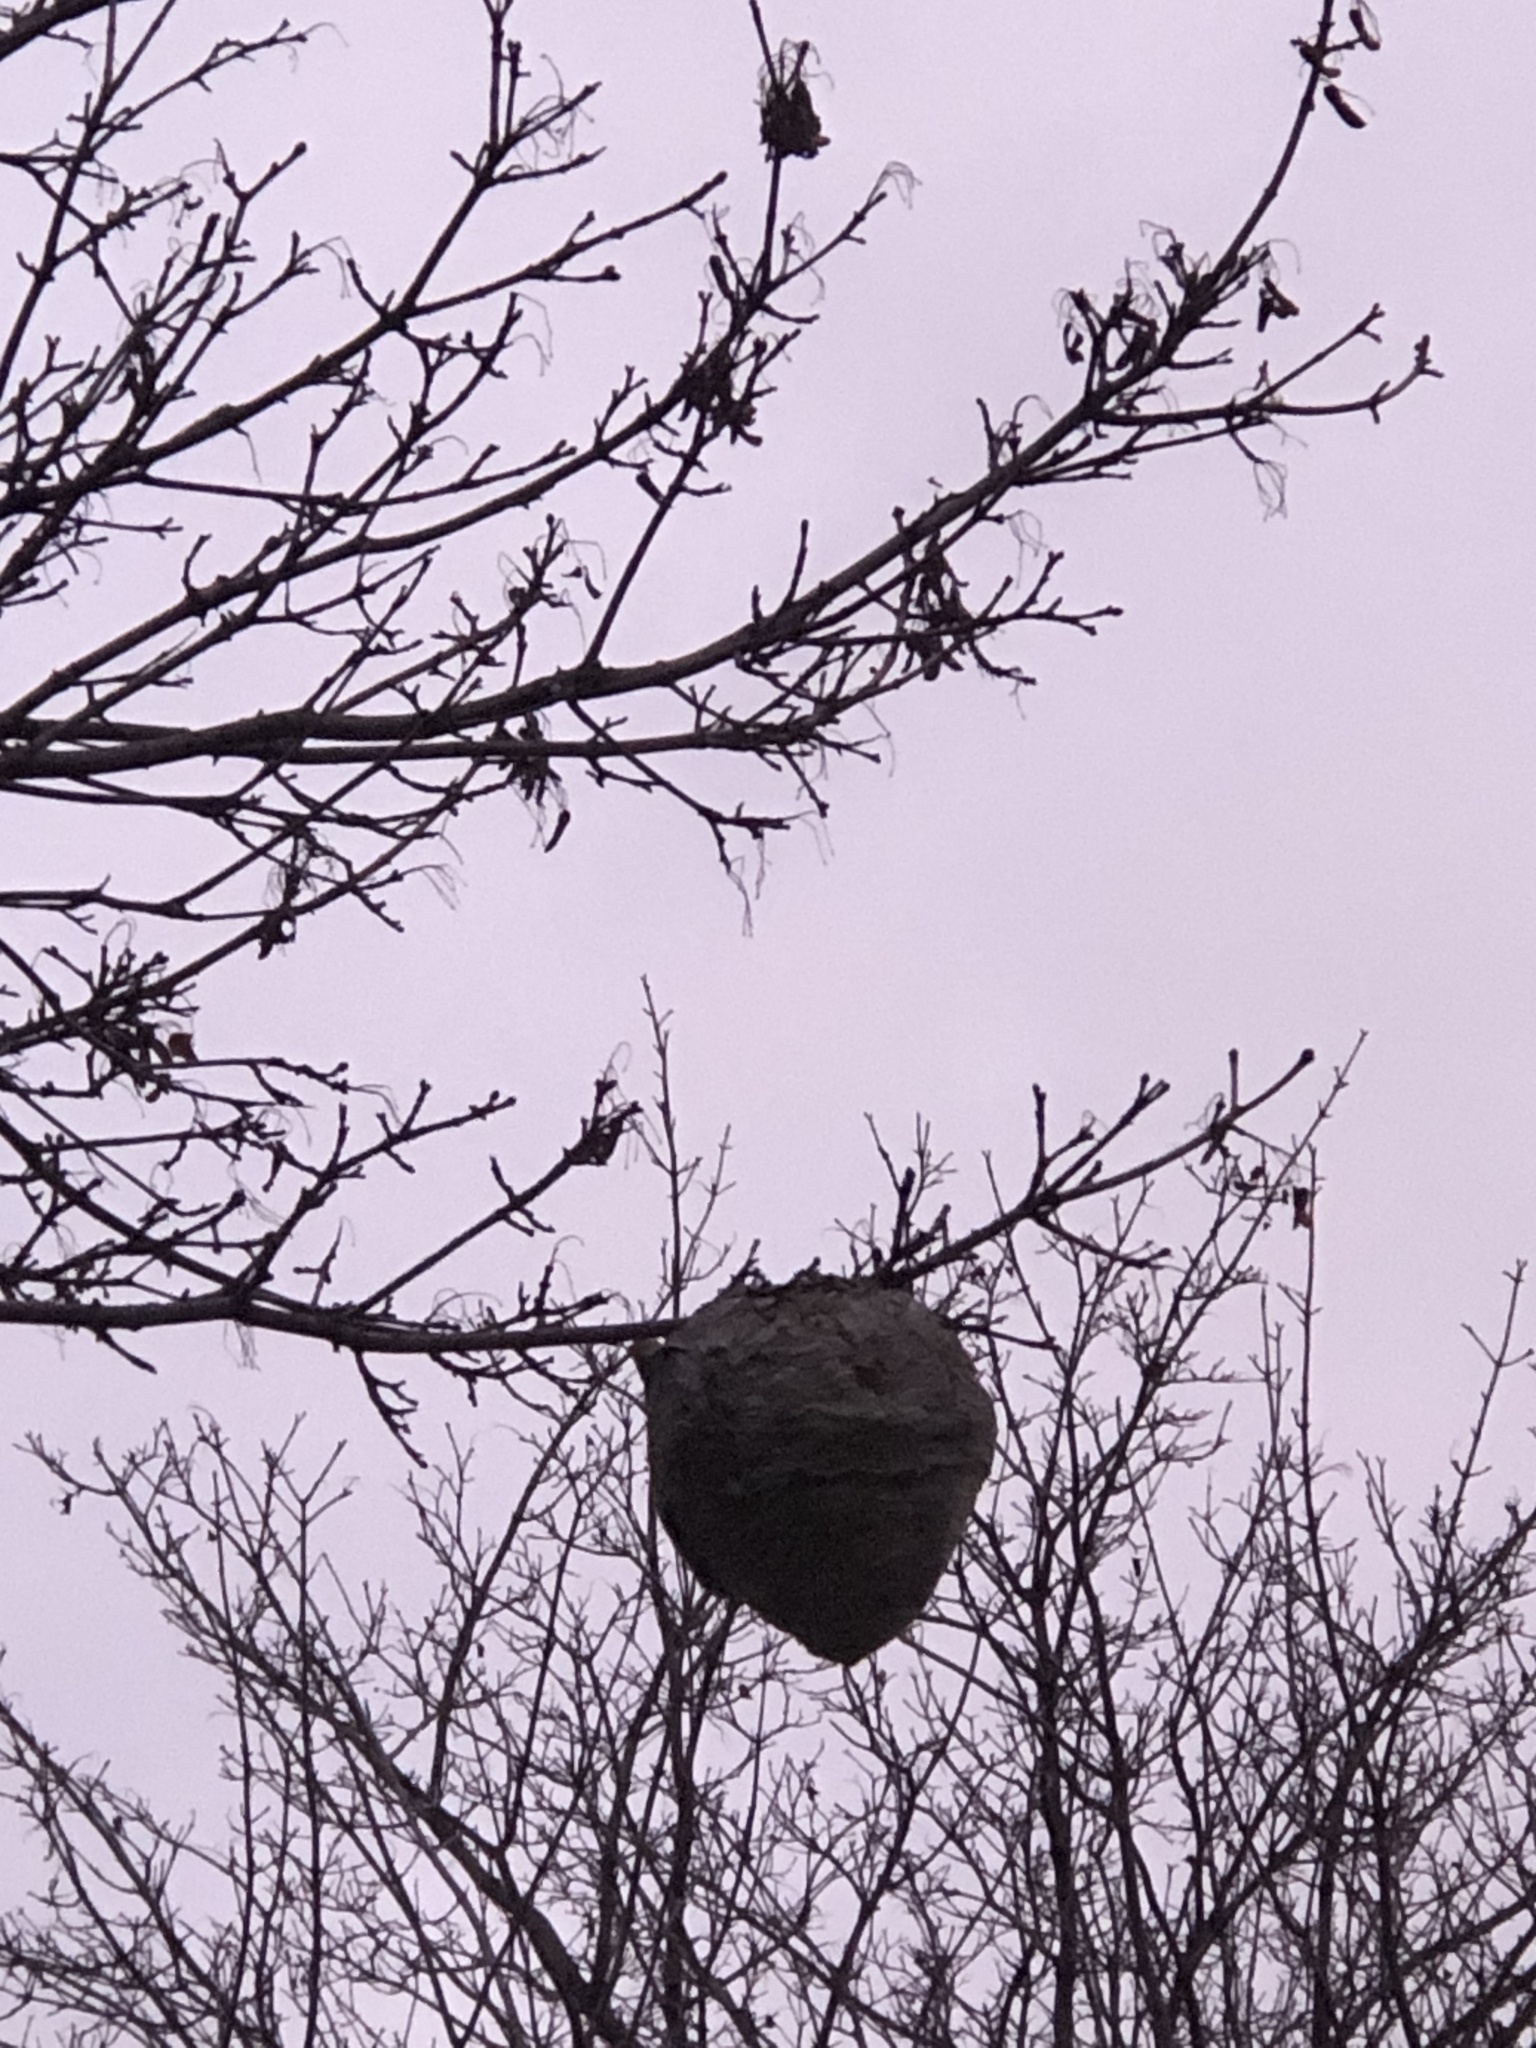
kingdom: Animalia
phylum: Arthropoda
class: Insecta
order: Hymenoptera
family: Vespidae
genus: Dolichovespula
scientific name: Dolichovespula
